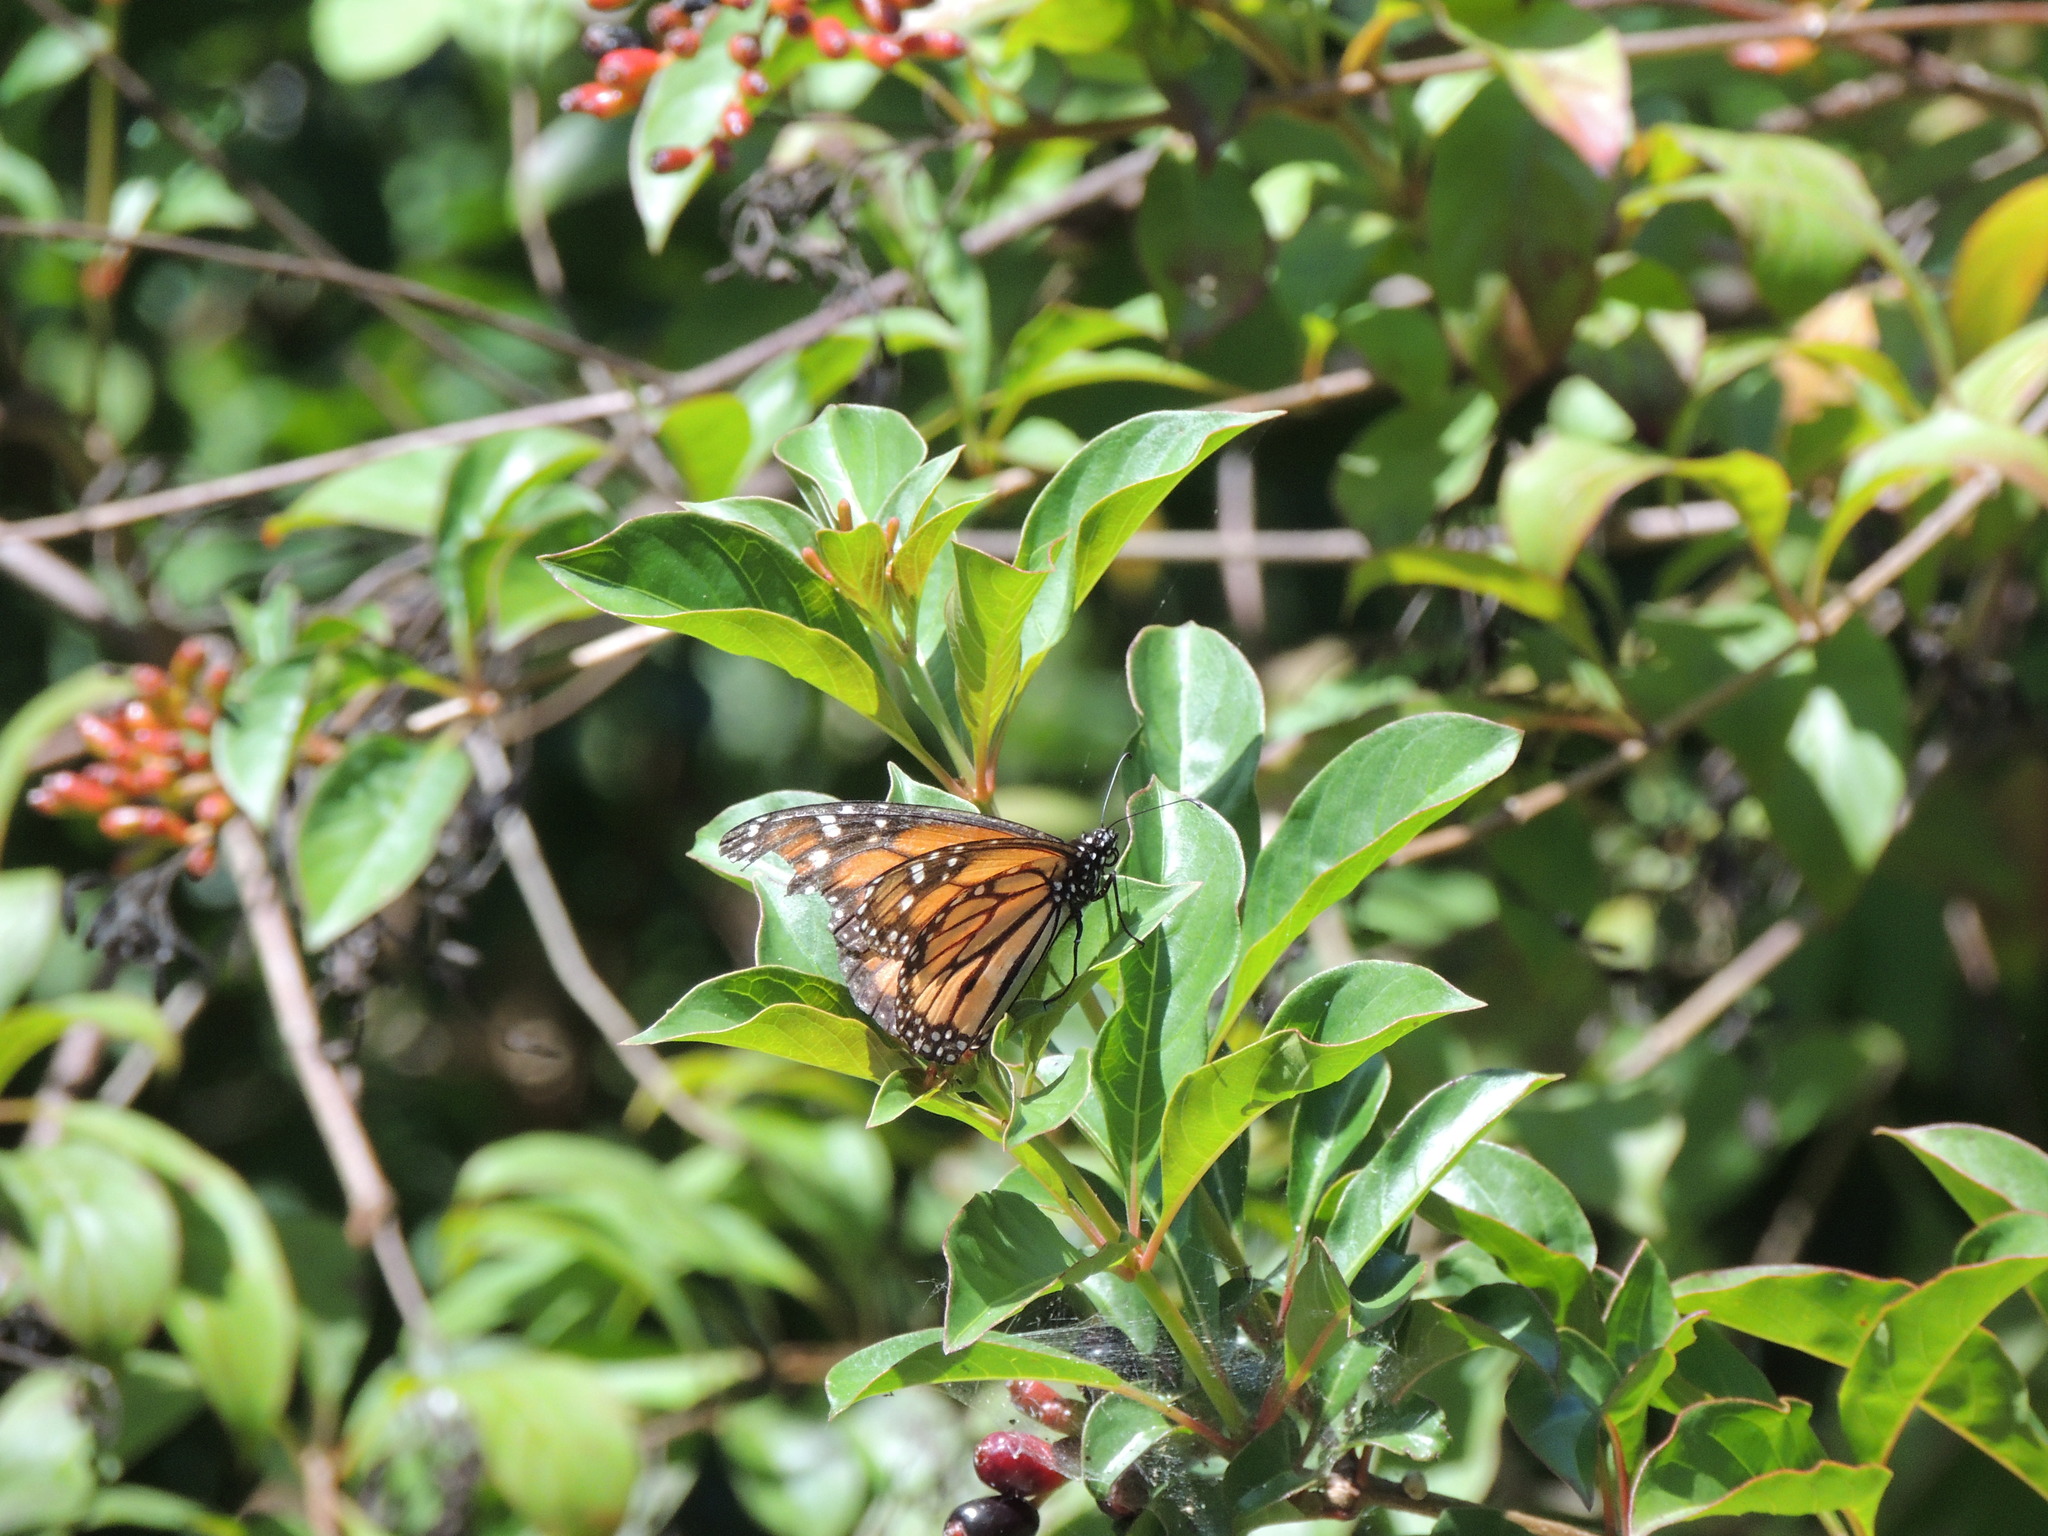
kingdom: Animalia
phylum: Arthropoda
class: Insecta
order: Lepidoptera
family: Nymphalidae
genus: Danaus
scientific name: Danaus plexippus
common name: Monarch
